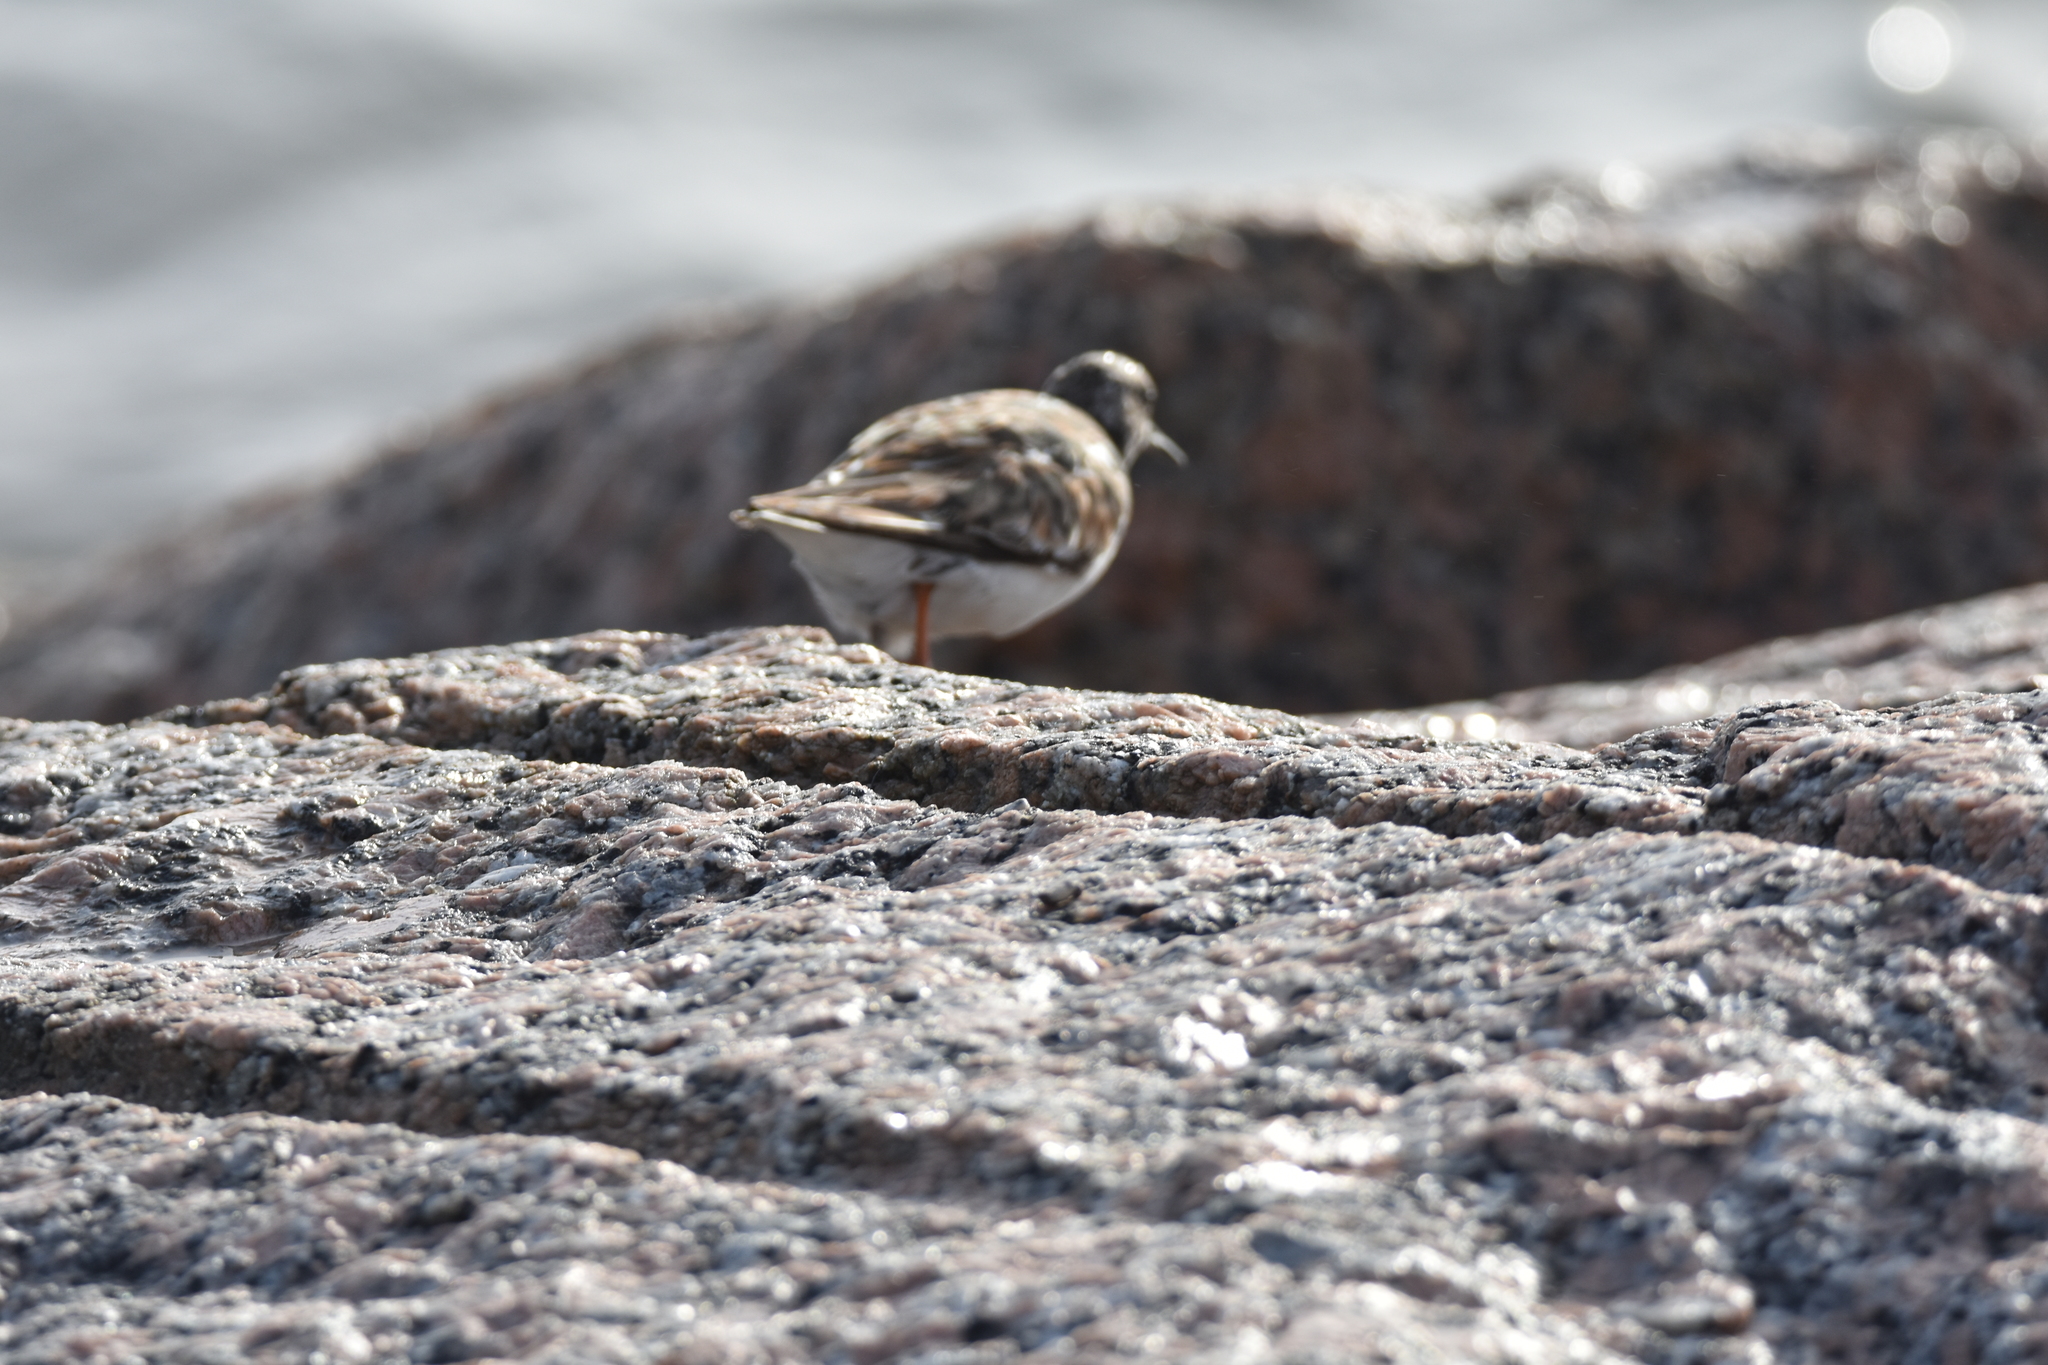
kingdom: Animalia
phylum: Chordata
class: Aves
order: Charadriiformes
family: Scolopacidae
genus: Arenaria
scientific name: Arenaria interpres
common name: Ruddy turnstone
